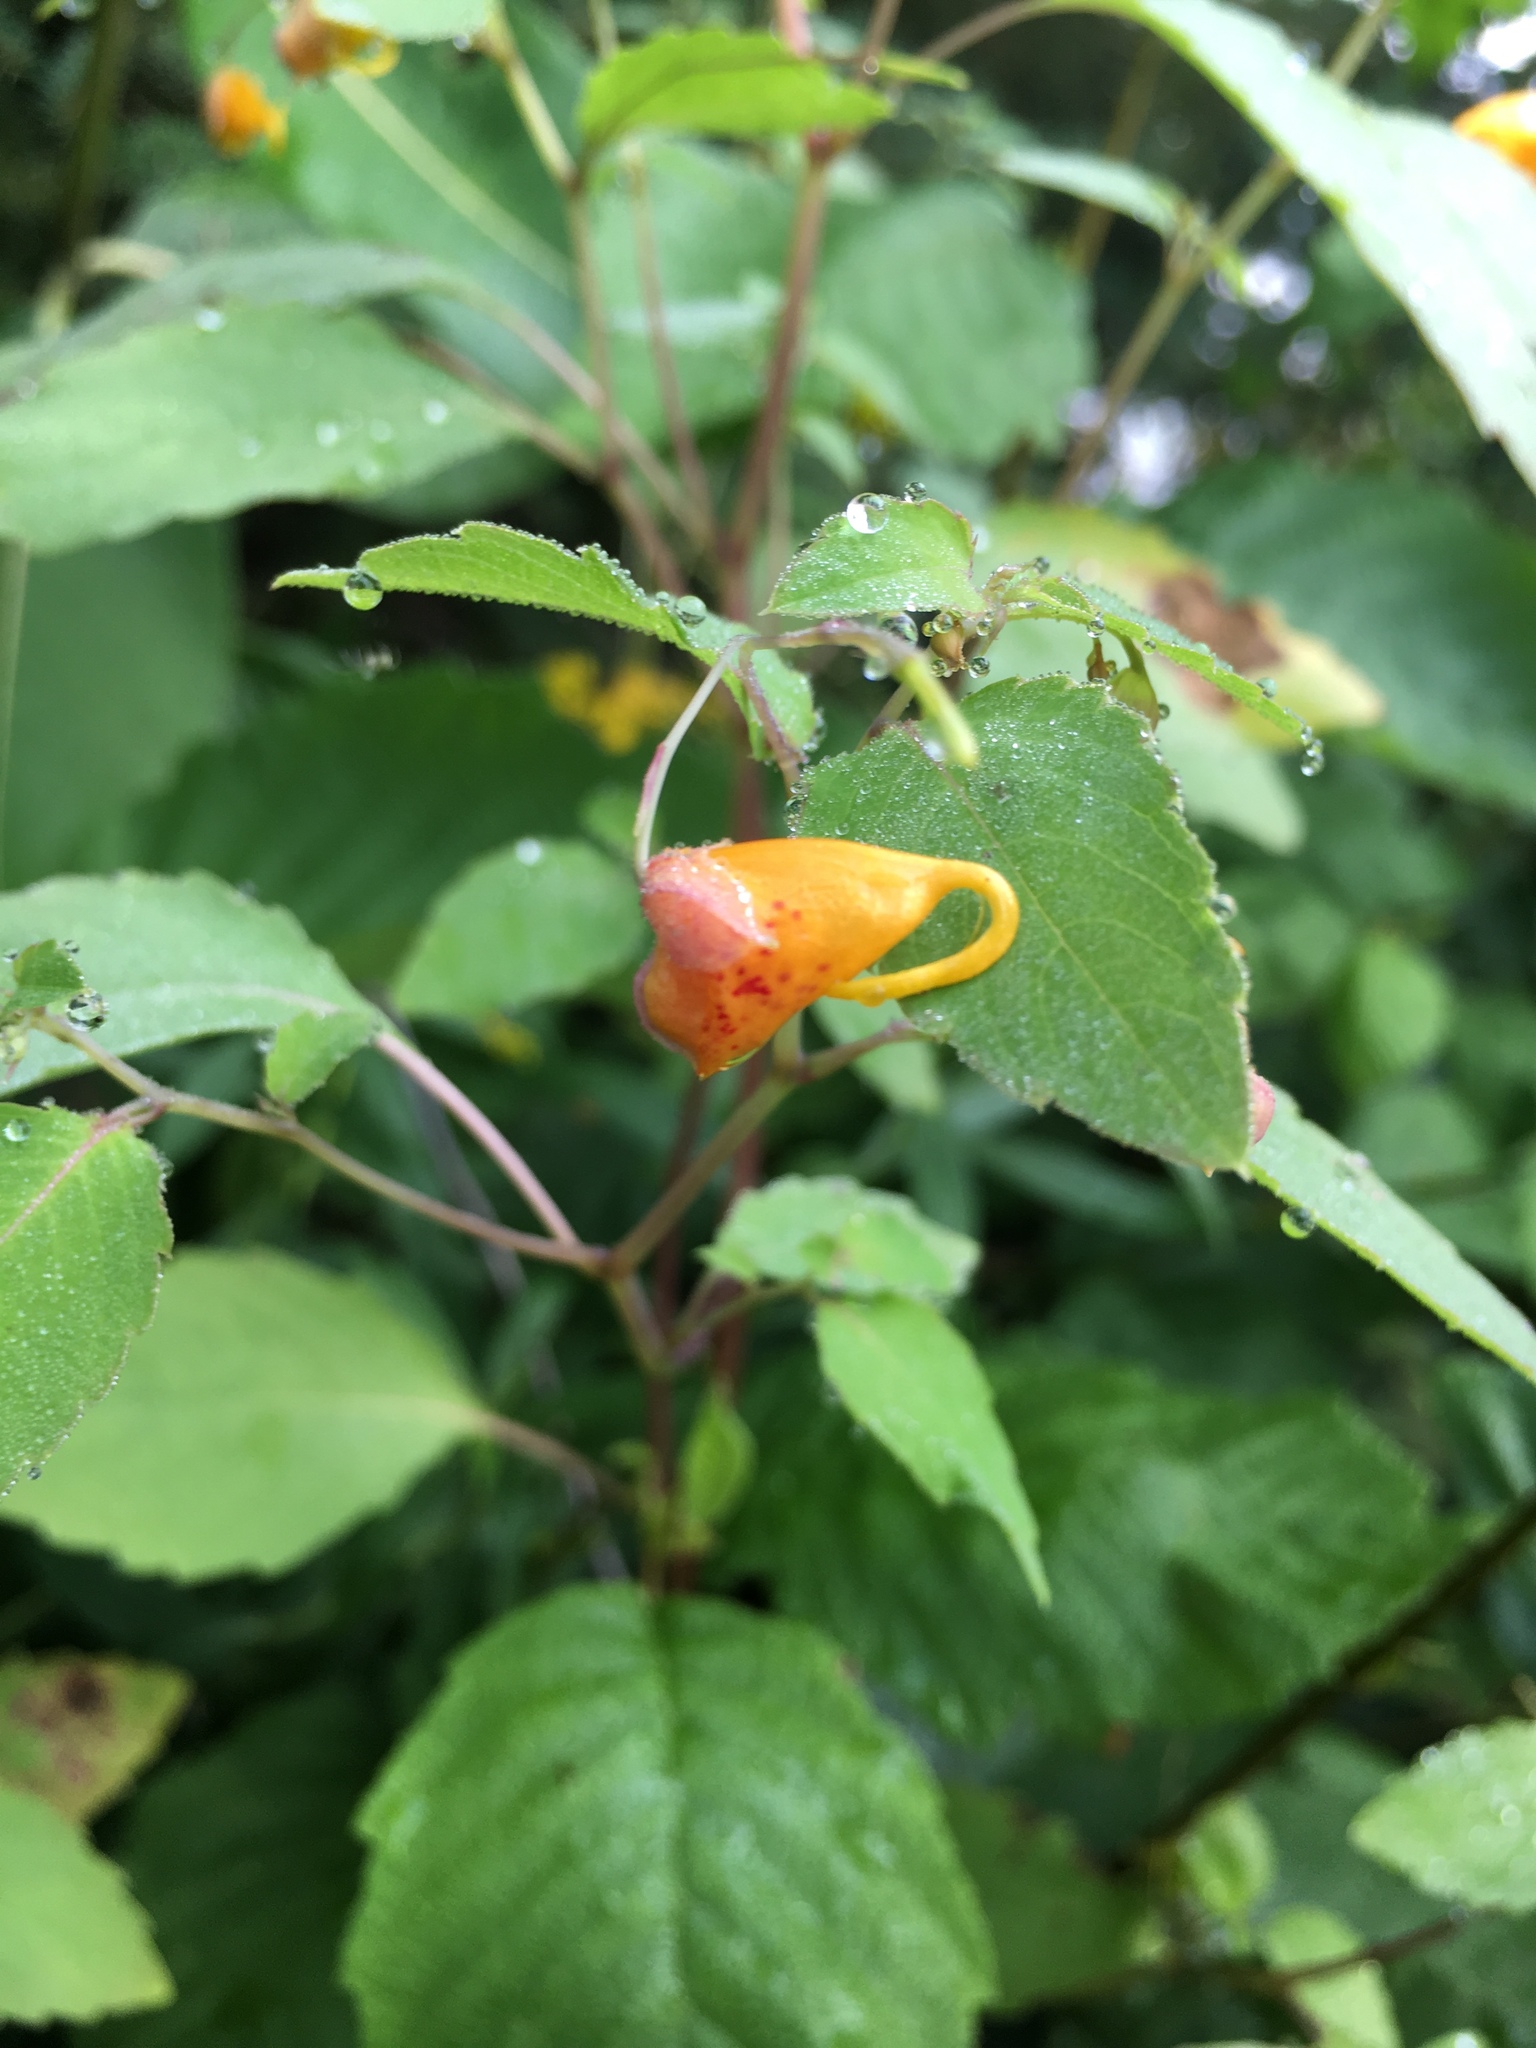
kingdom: Plantae
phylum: Tracheophyta
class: Magnoliopsida
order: Ericales
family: Balsaminaceae
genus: Impatiens
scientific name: Impatiens capensis
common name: Orange balsam
